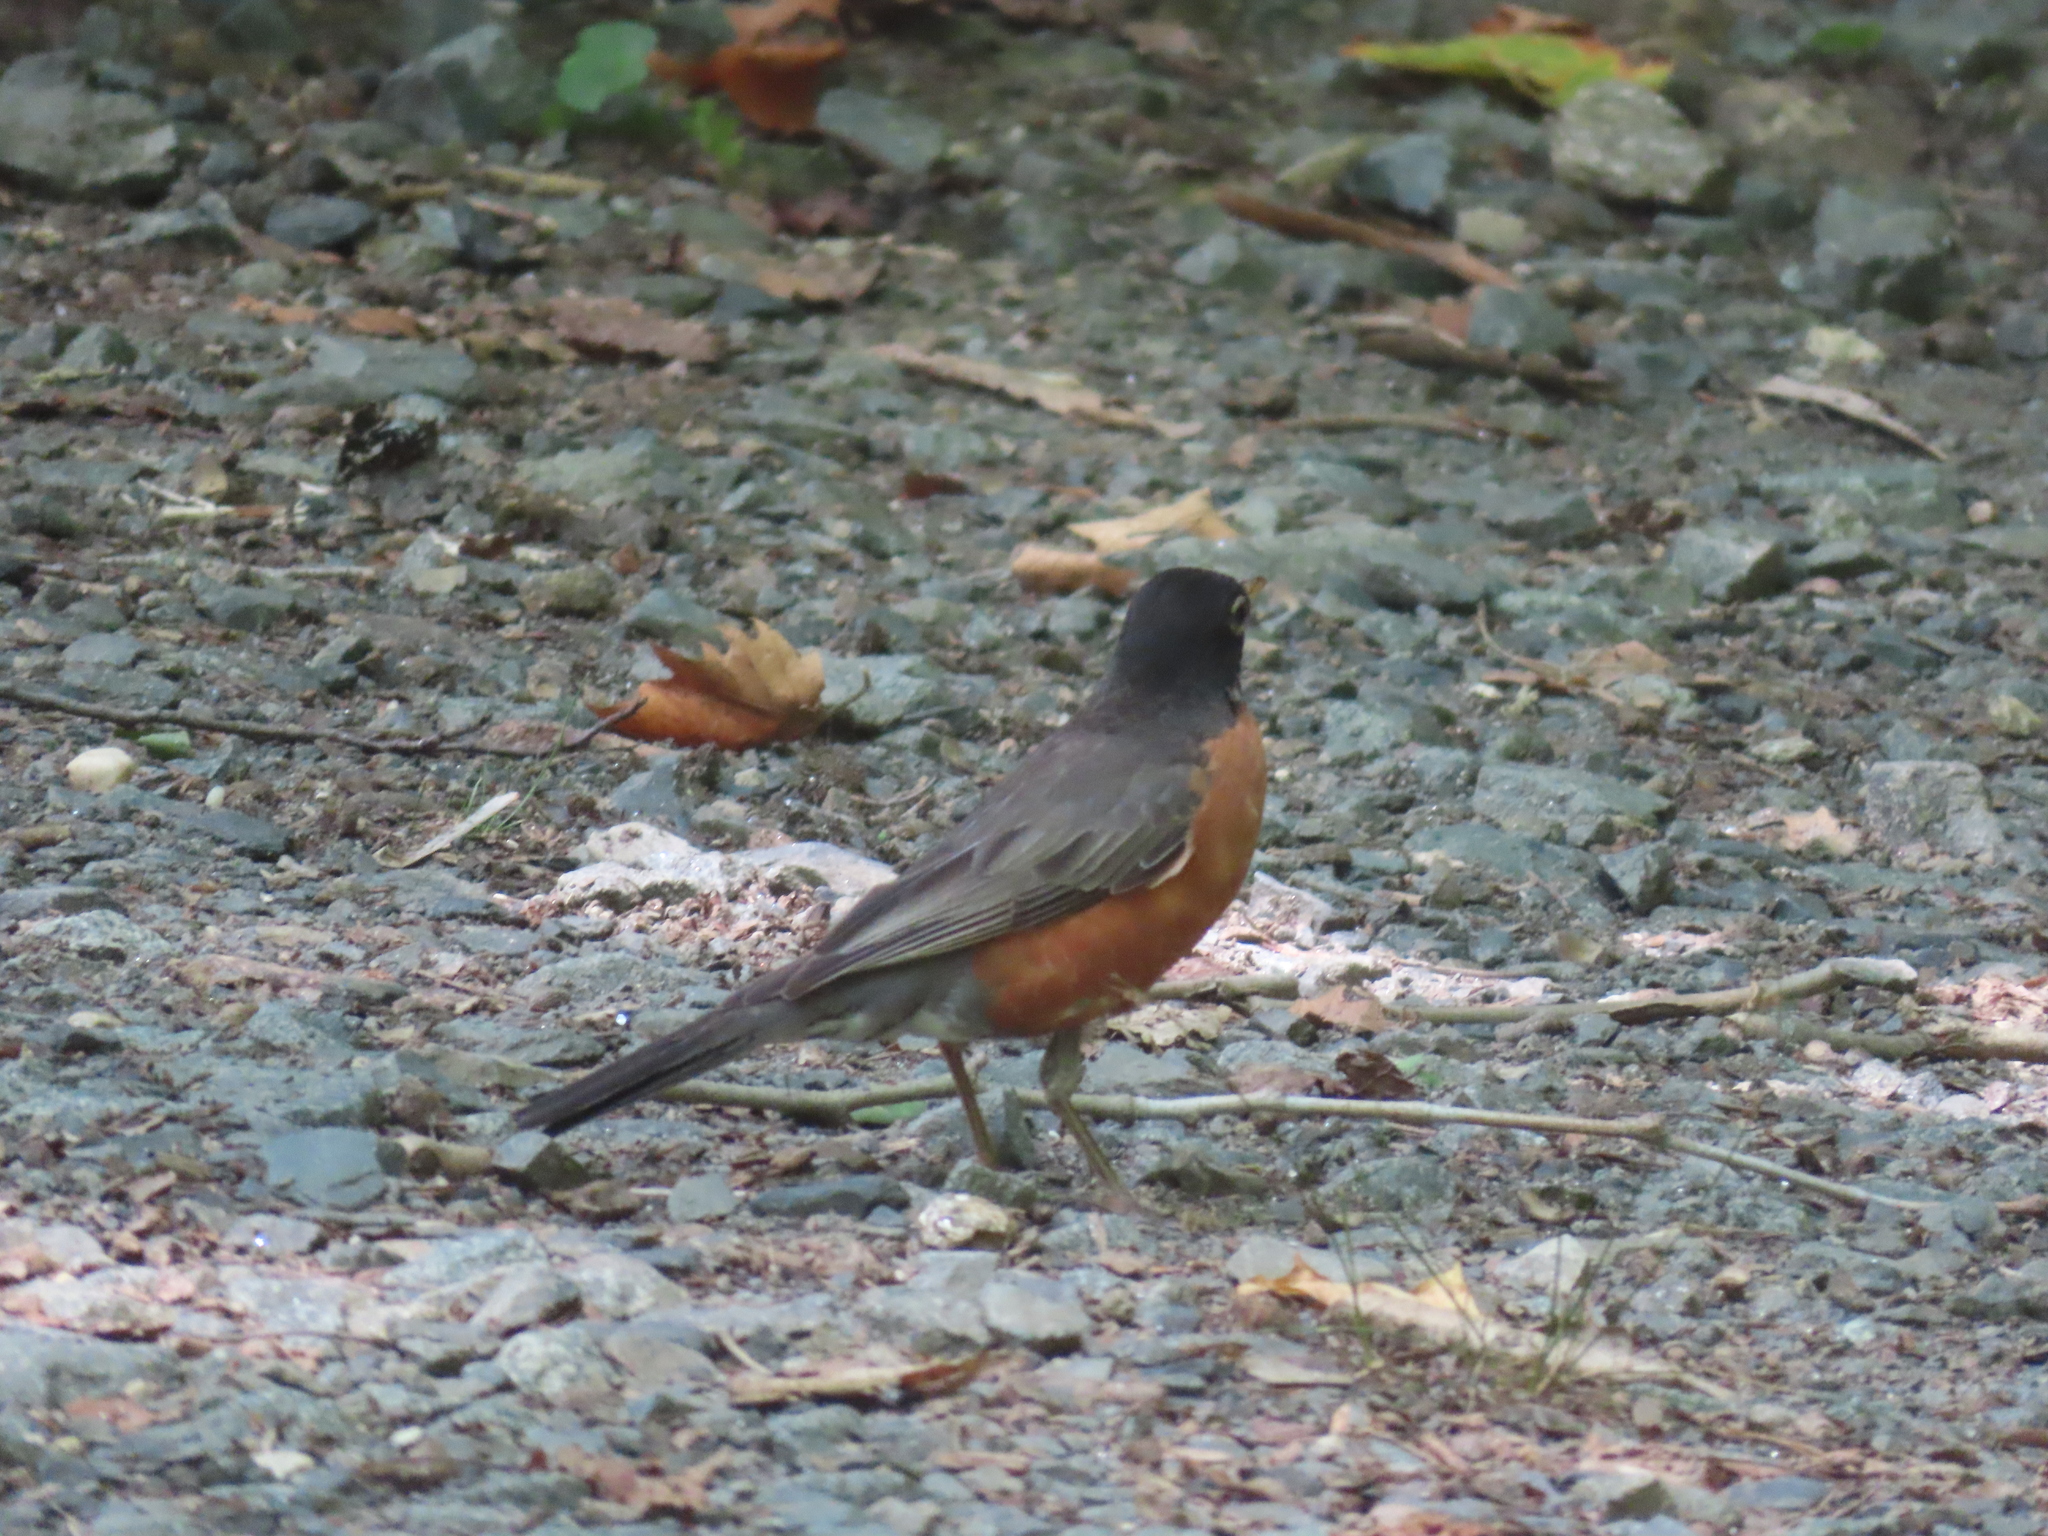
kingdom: Animalia
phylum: Chordata
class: Aves
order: Passeriformes
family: Turdidae
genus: Turdus
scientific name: Turdus migratorius
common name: American robin
